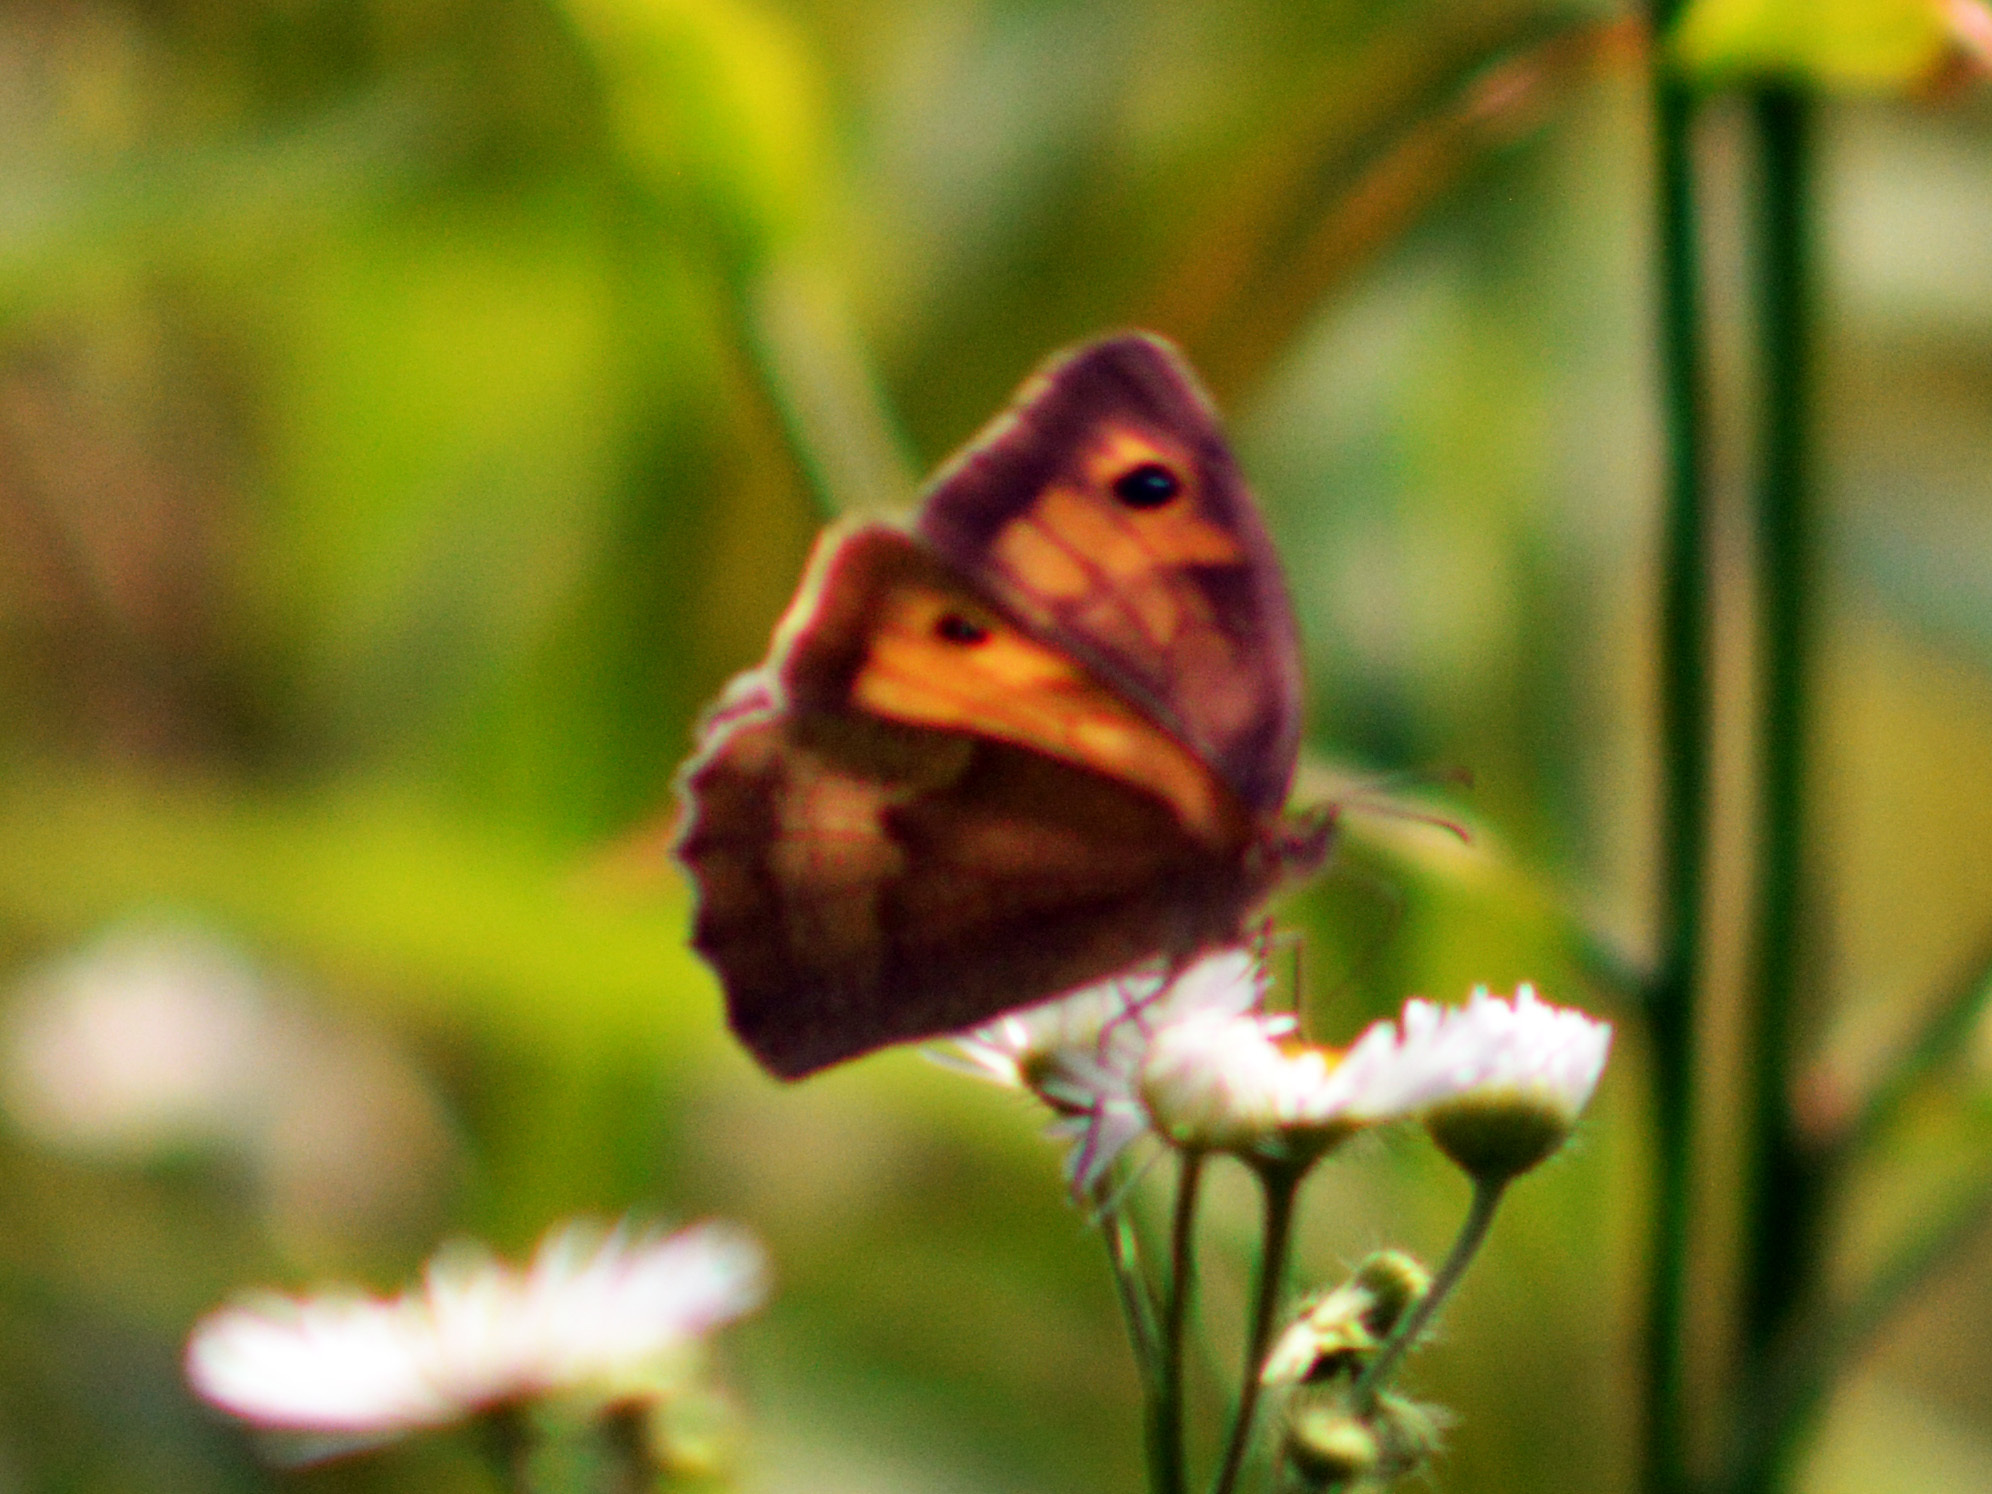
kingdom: Animalia
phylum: Arthropoda
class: Insecta
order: Lepidoptera
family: Nymphalidae
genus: Maniola
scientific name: Maniola jurtina
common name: Meadow brown
